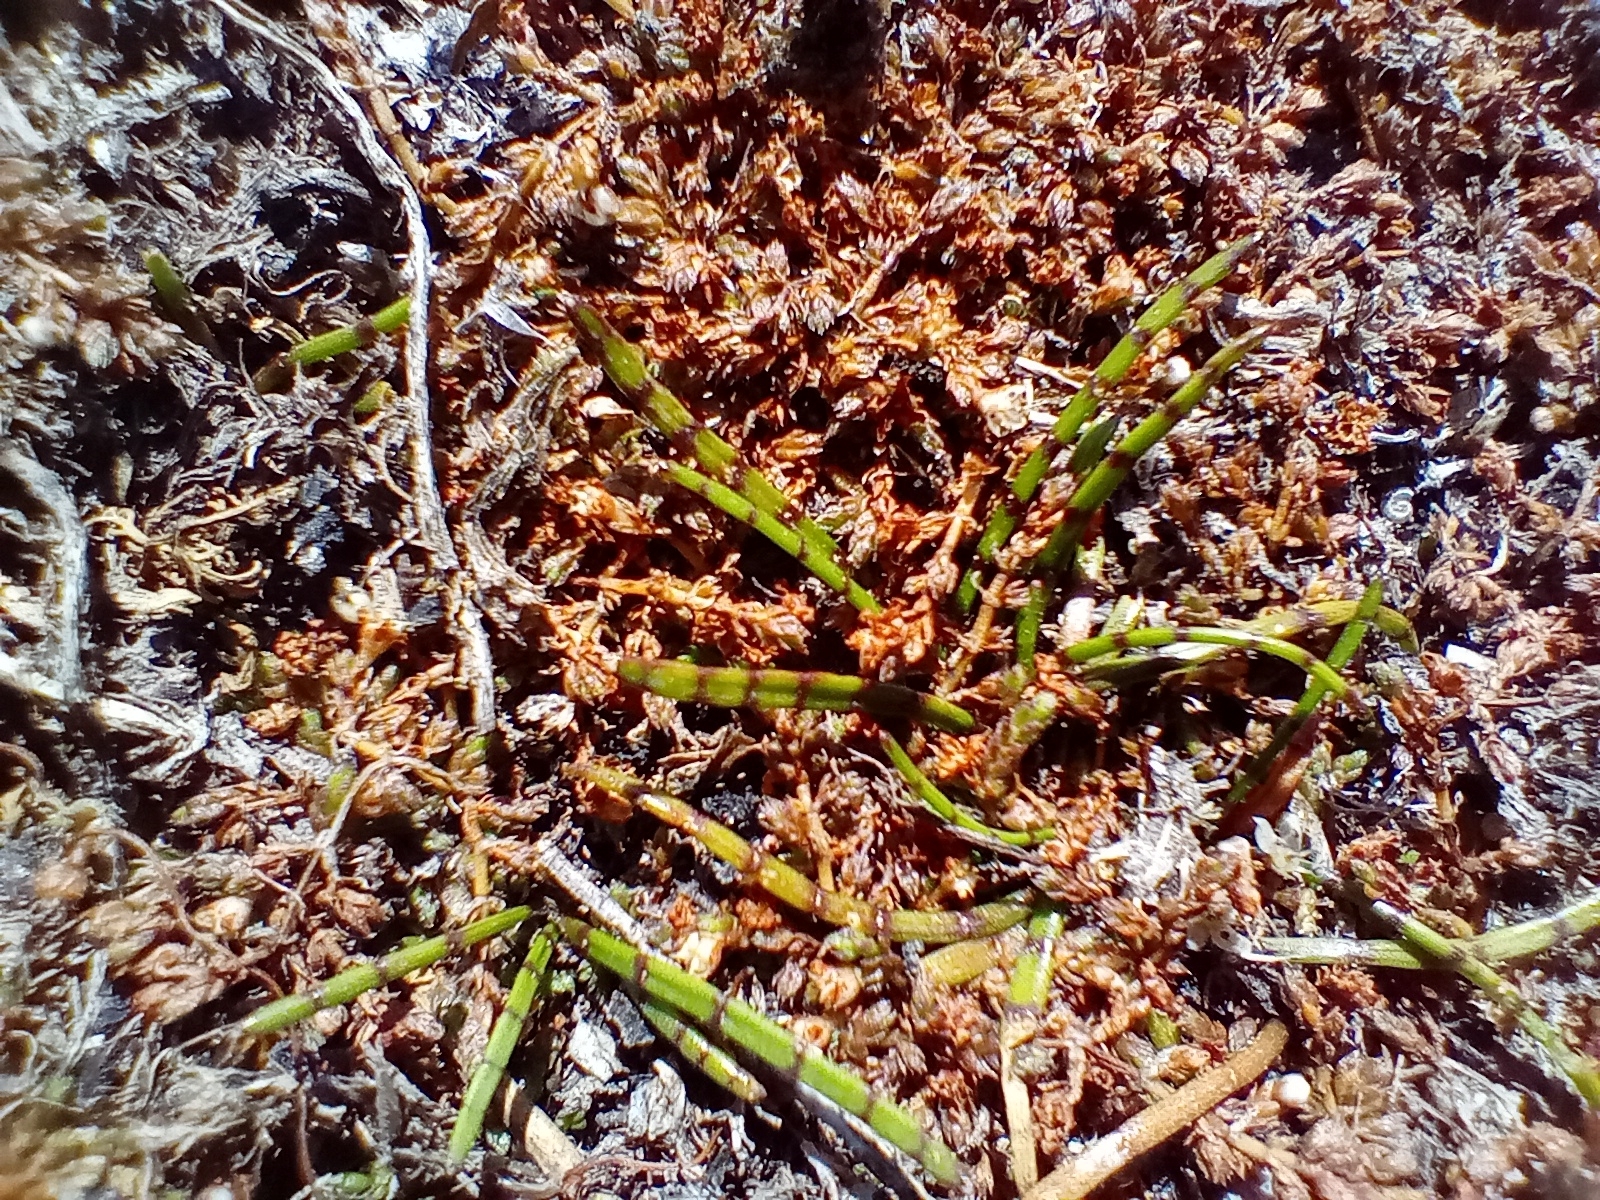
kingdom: Plantae
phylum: Tracheophyta
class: Magnoliopsida
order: Apiales
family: Apiaceae
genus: Lilaeopsis
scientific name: Lilaeopsis novae-zelandiae
